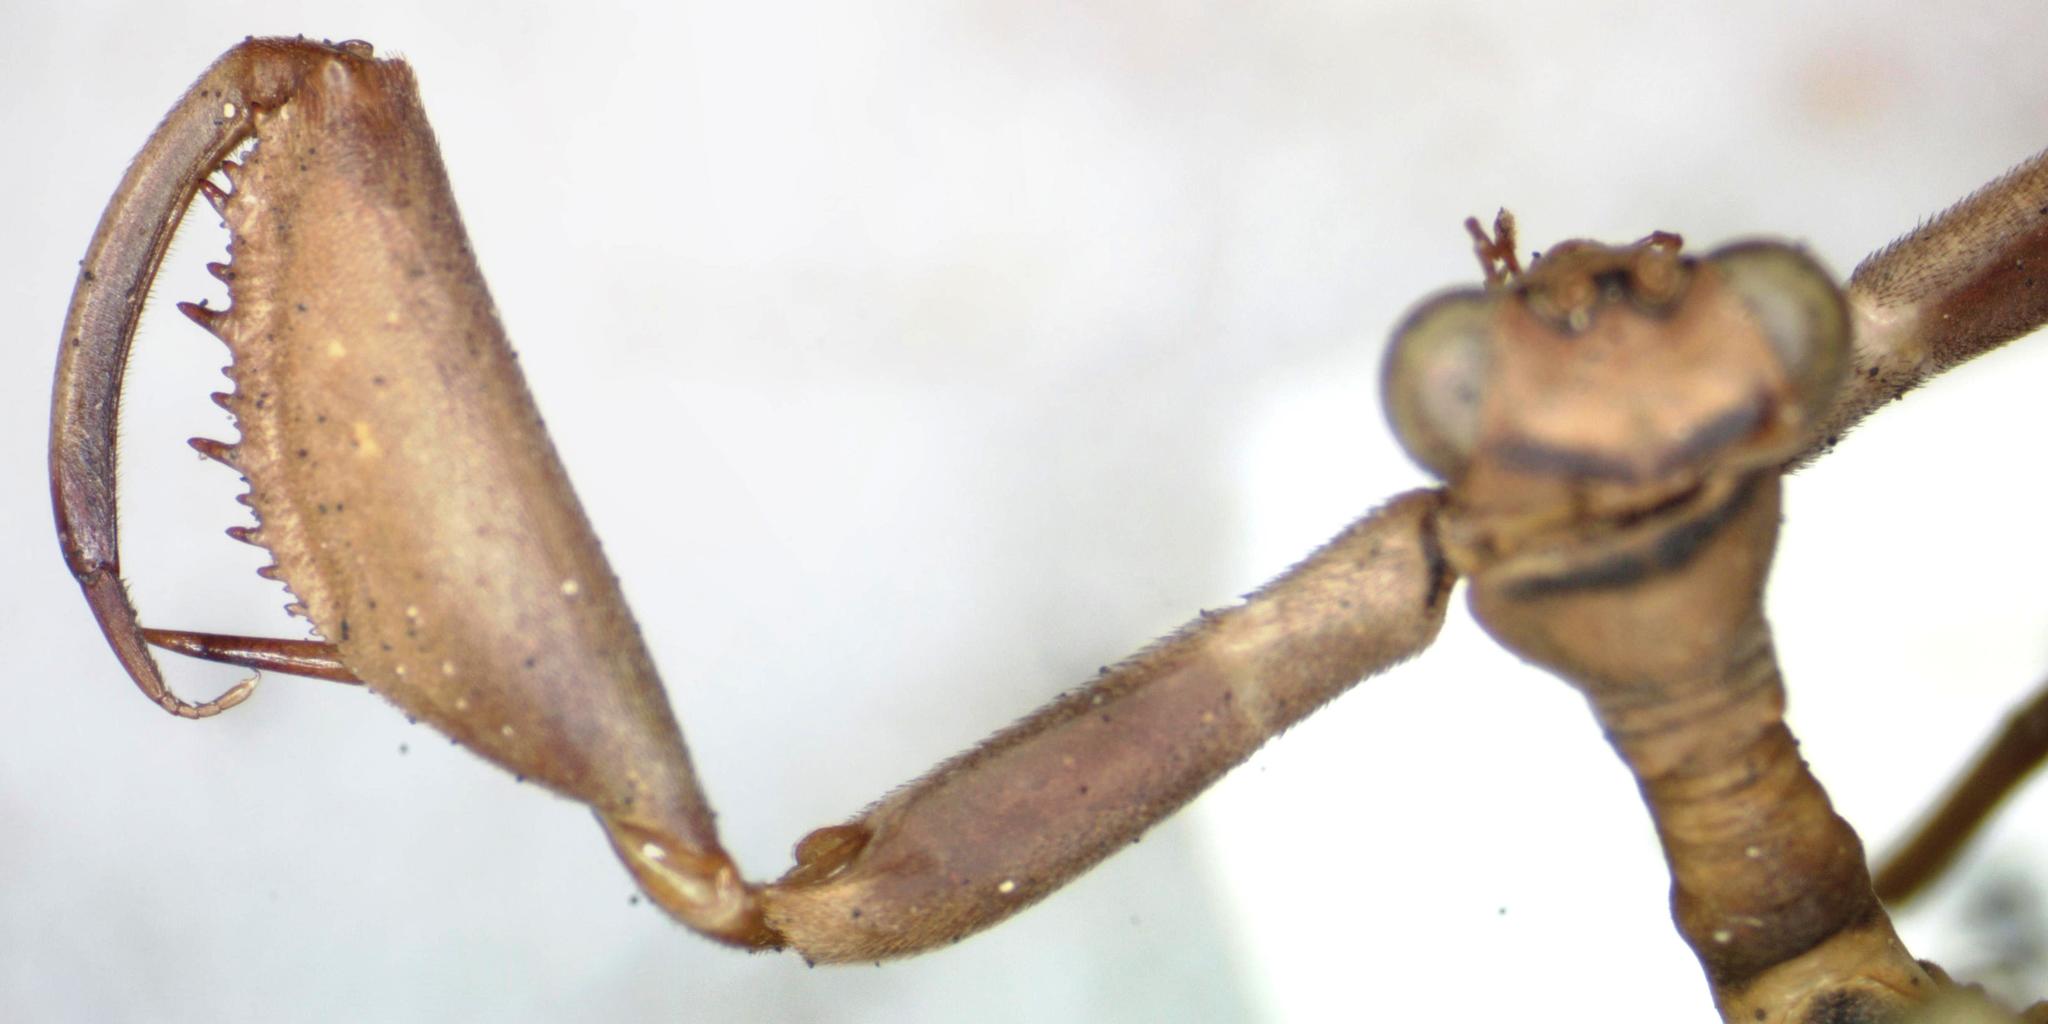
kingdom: Animalia
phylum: Arthropoda
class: Insecta
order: Neuroptera
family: Mantispidae
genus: Climaciella
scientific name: Climaciella brunnea
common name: Brown wasp mantidfly
